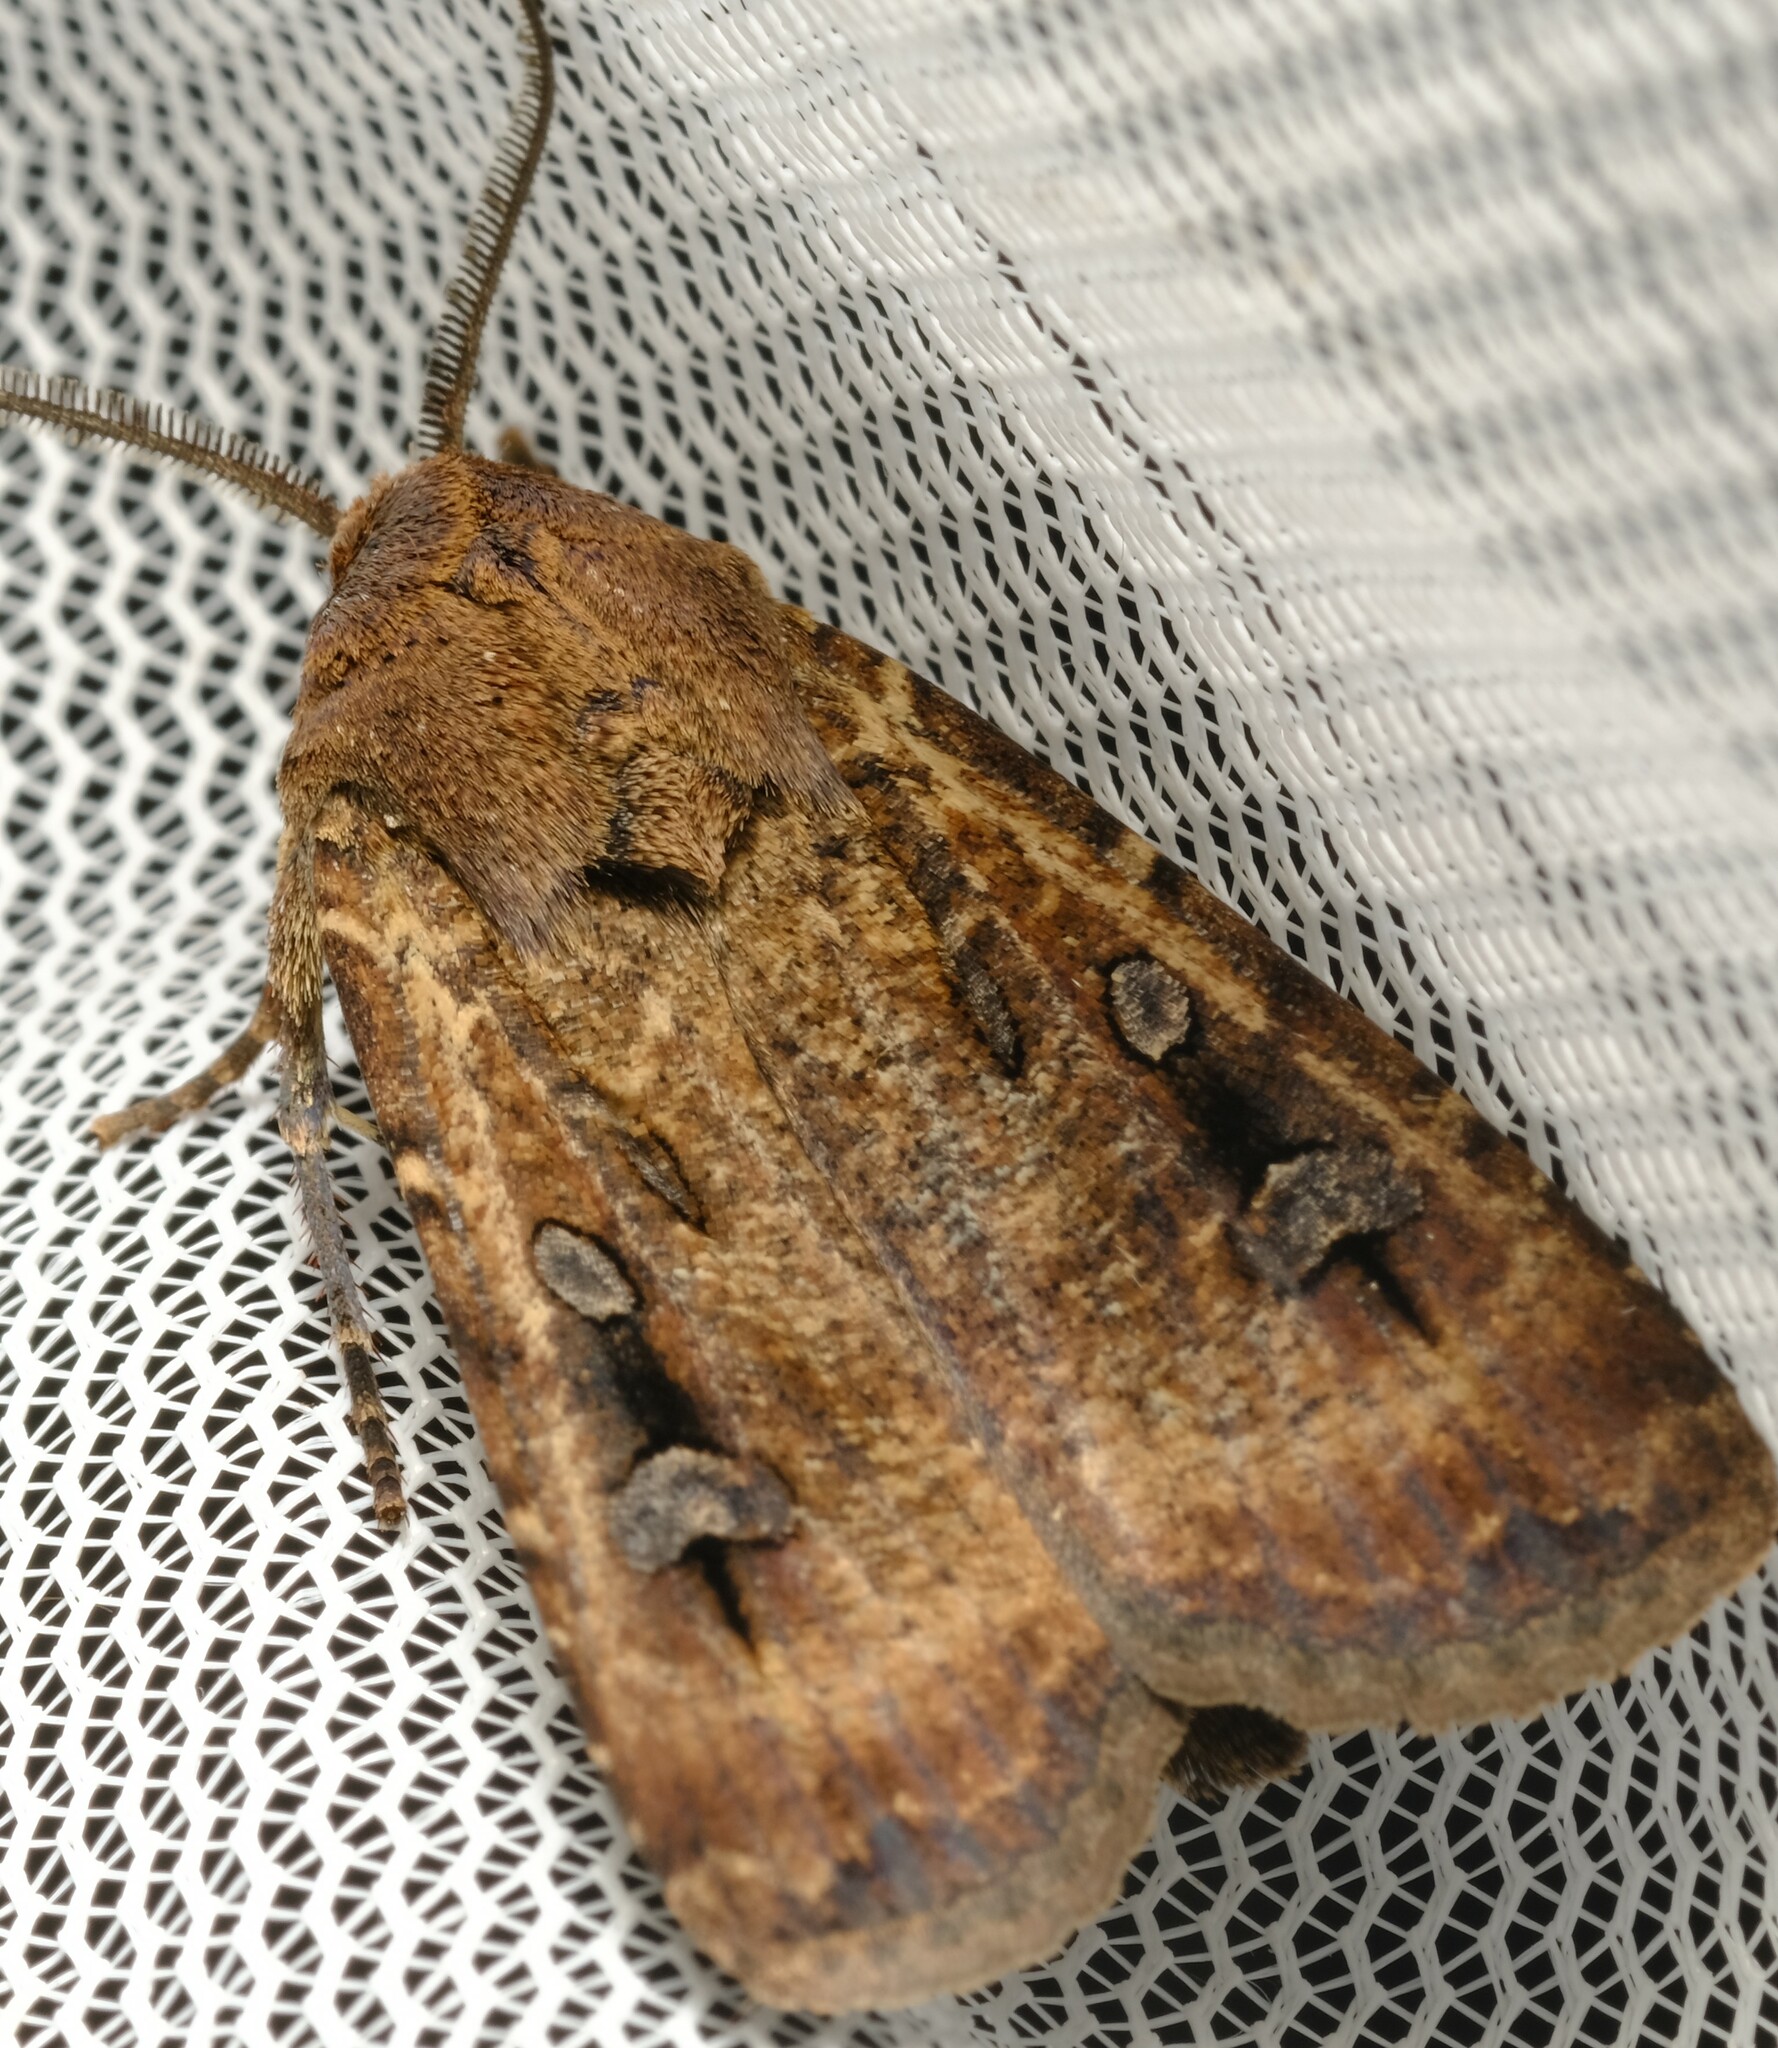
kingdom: Animalia
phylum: Arthropoda
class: Insecta
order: Lepidoptera
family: Noctuidae
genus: Agrotis
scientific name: Agrotis infusa
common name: Bogong moth
